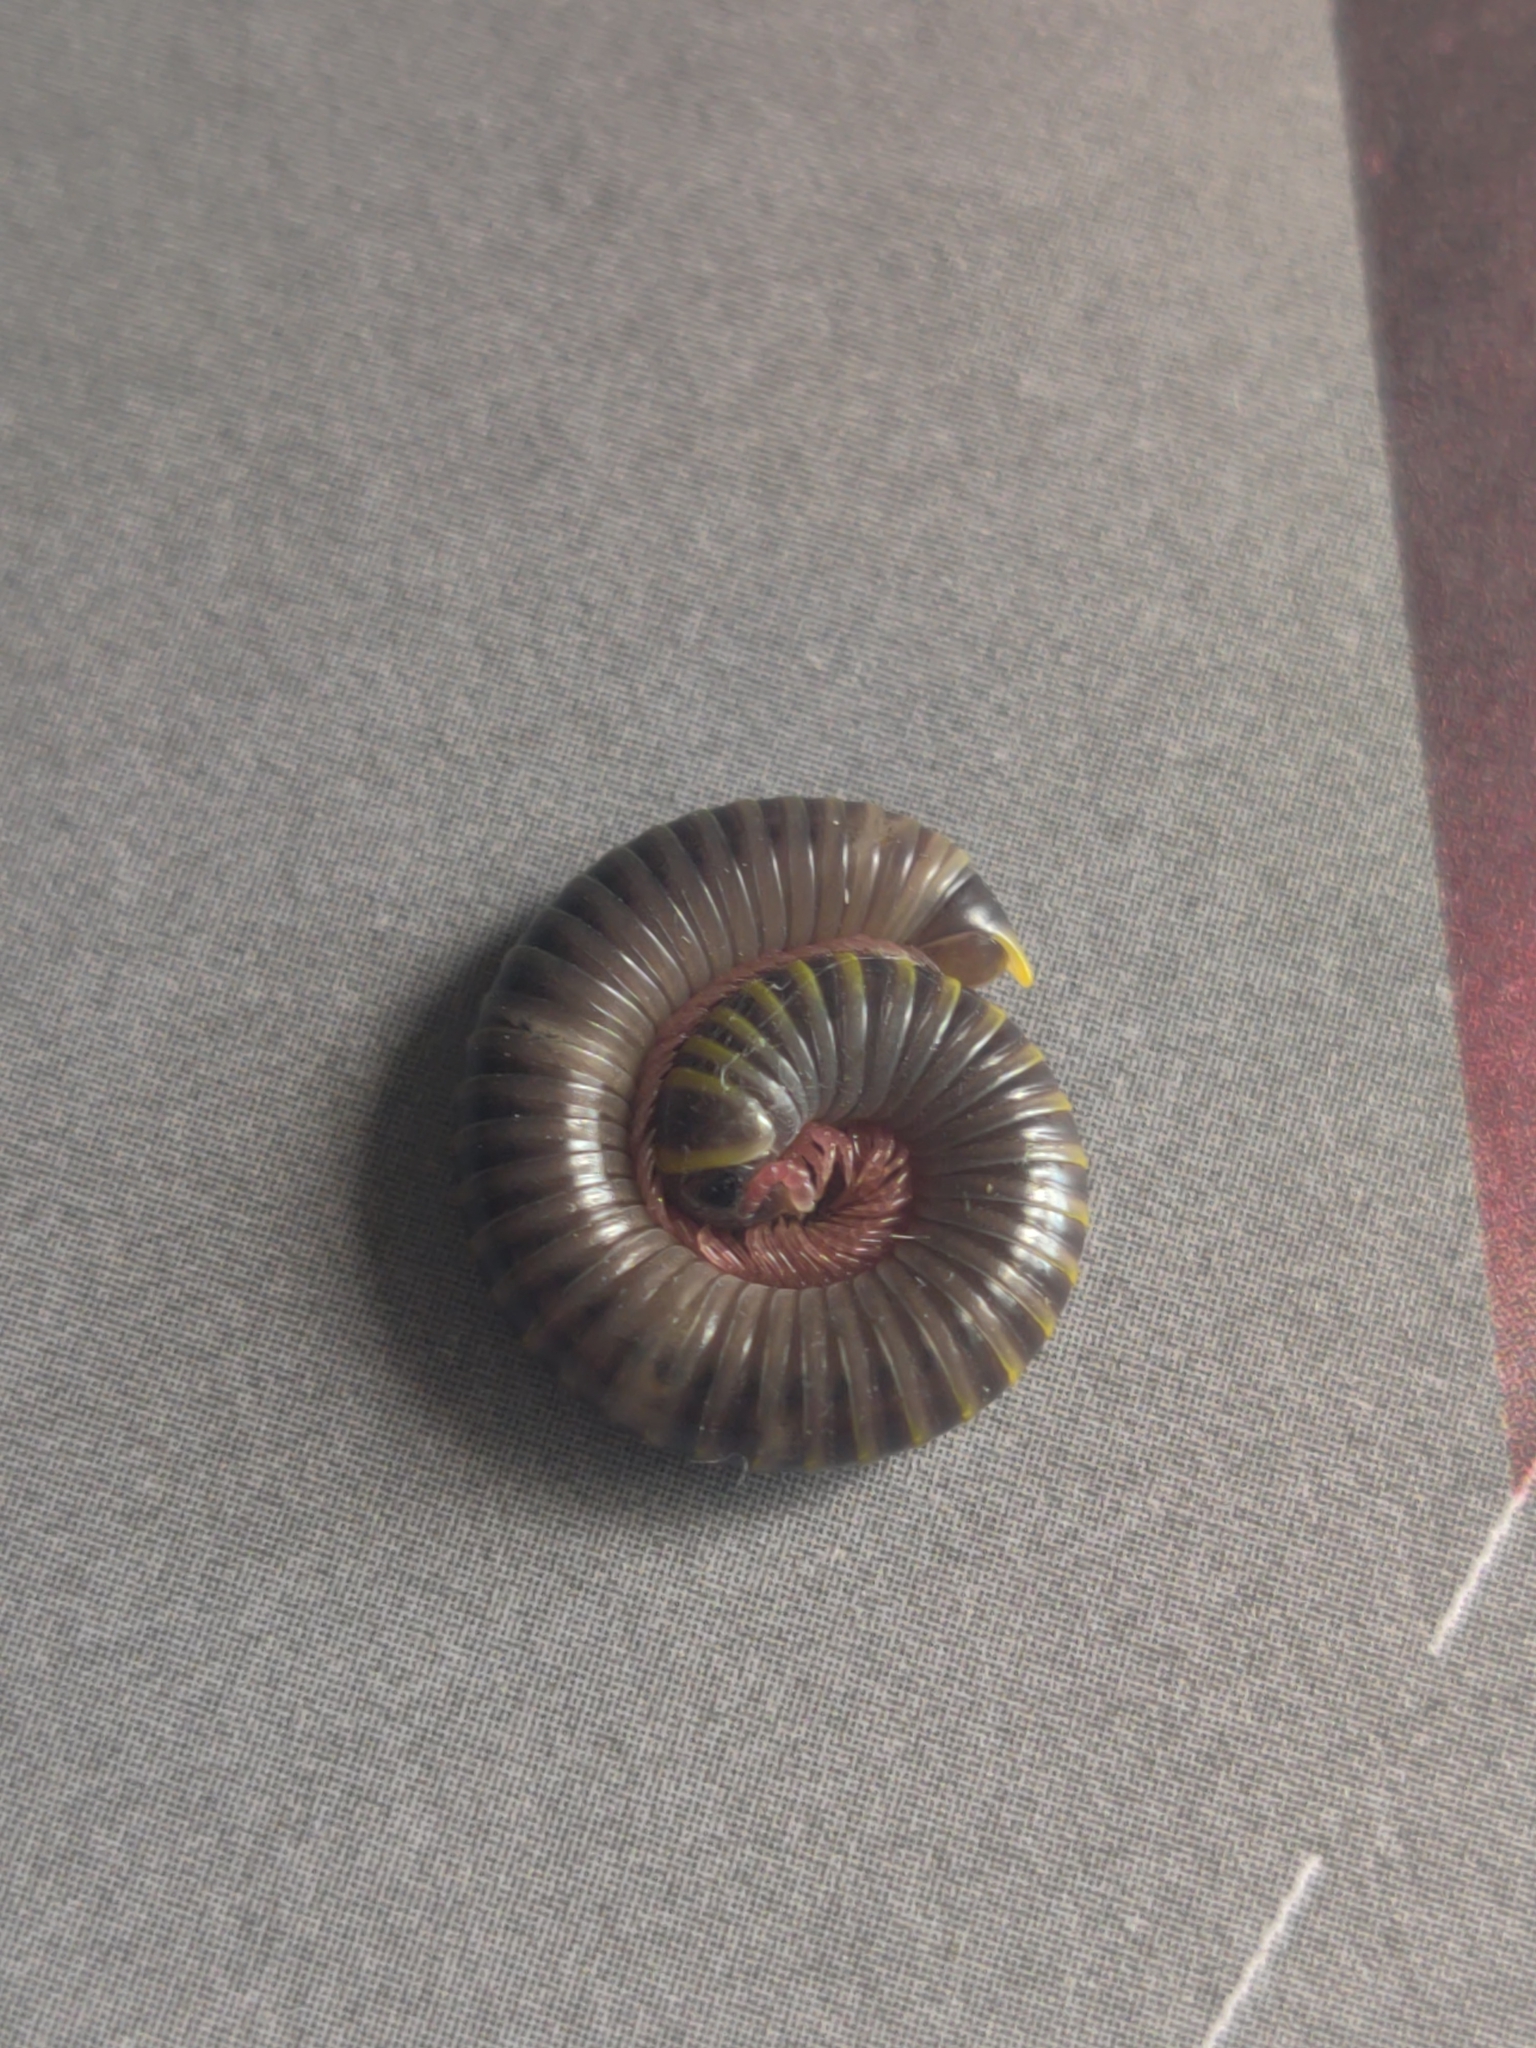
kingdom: Animalia
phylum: Arthropoda
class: Diplopoda
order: Spirobolida
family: Rhinocricidae
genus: Anadenobolus
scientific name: Anadenobolus monilicornis
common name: Caribbean millipede
